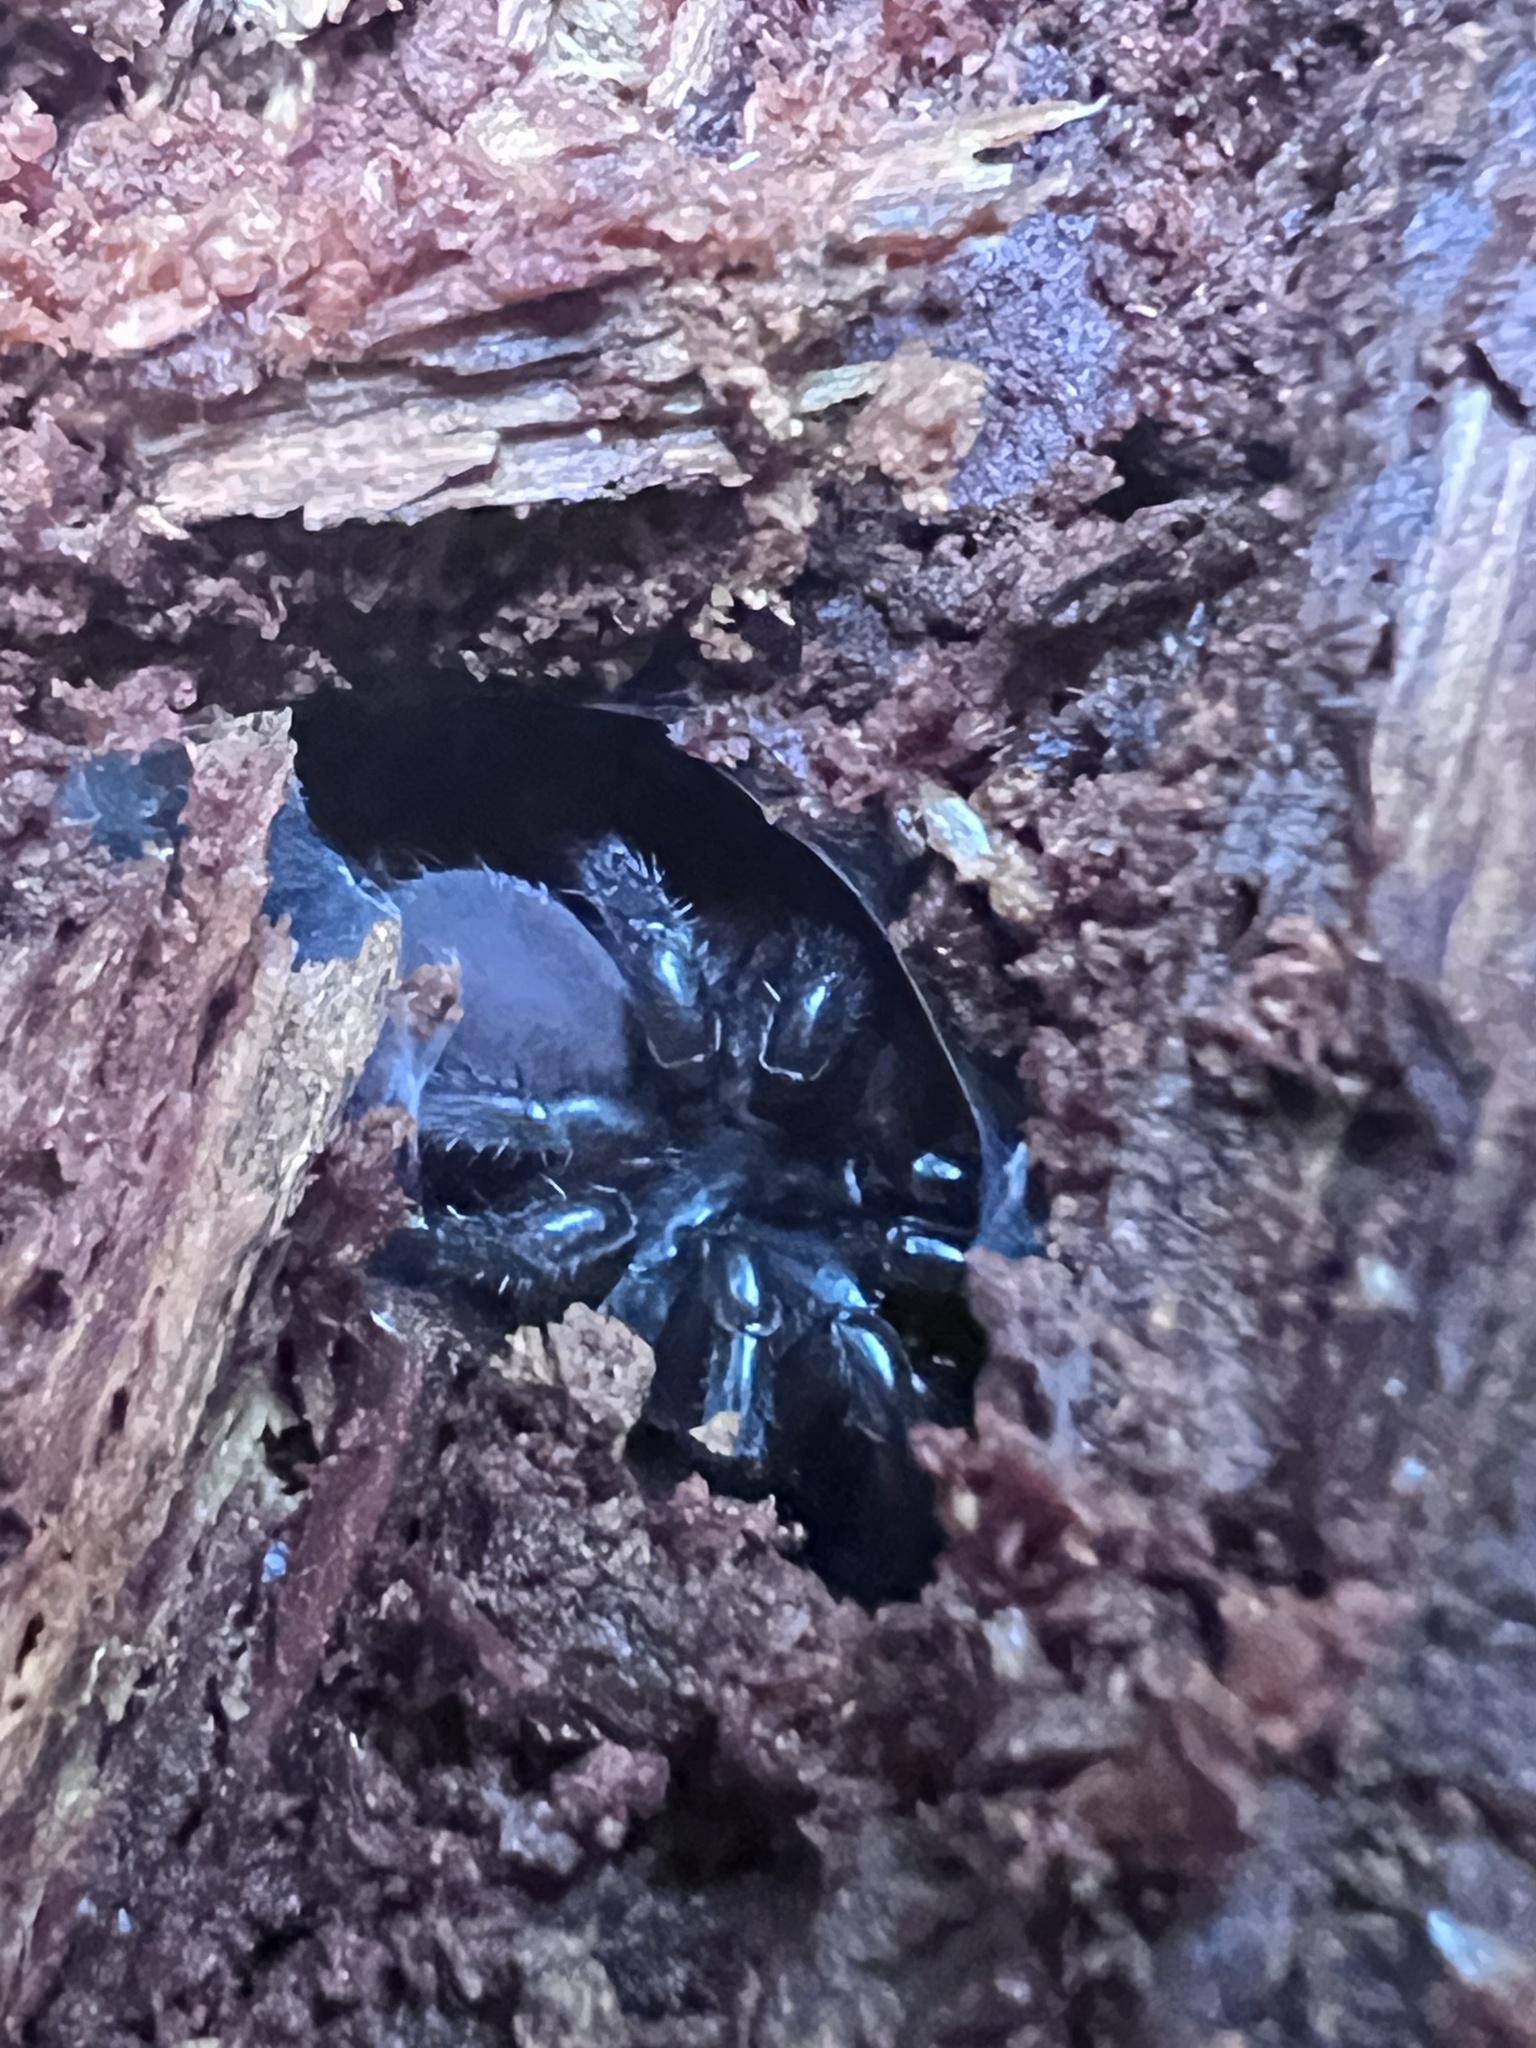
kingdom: Animalia
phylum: Arthropoda
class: Arachnida
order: Araneae
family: Antrodiaetidae
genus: Antrodiaetus
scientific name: Antrodiaetus pacificus
